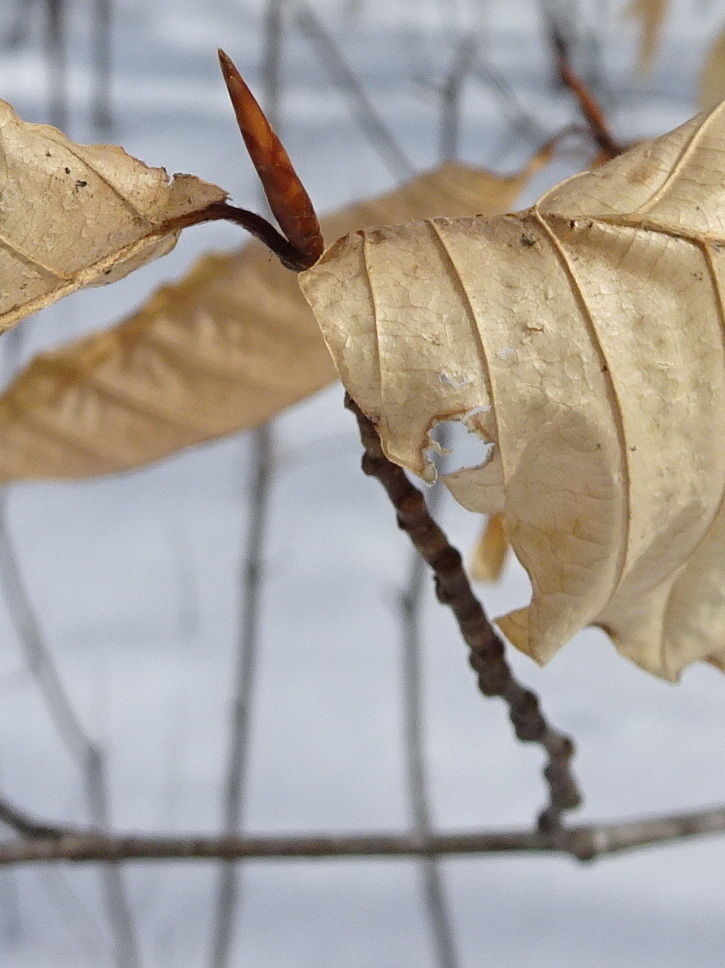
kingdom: Plantae
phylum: Tracheophyta
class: Magnoliopsida
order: Fagales
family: Fagaceae
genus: Fagus
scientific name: Fagus grandifolia
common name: American beech
